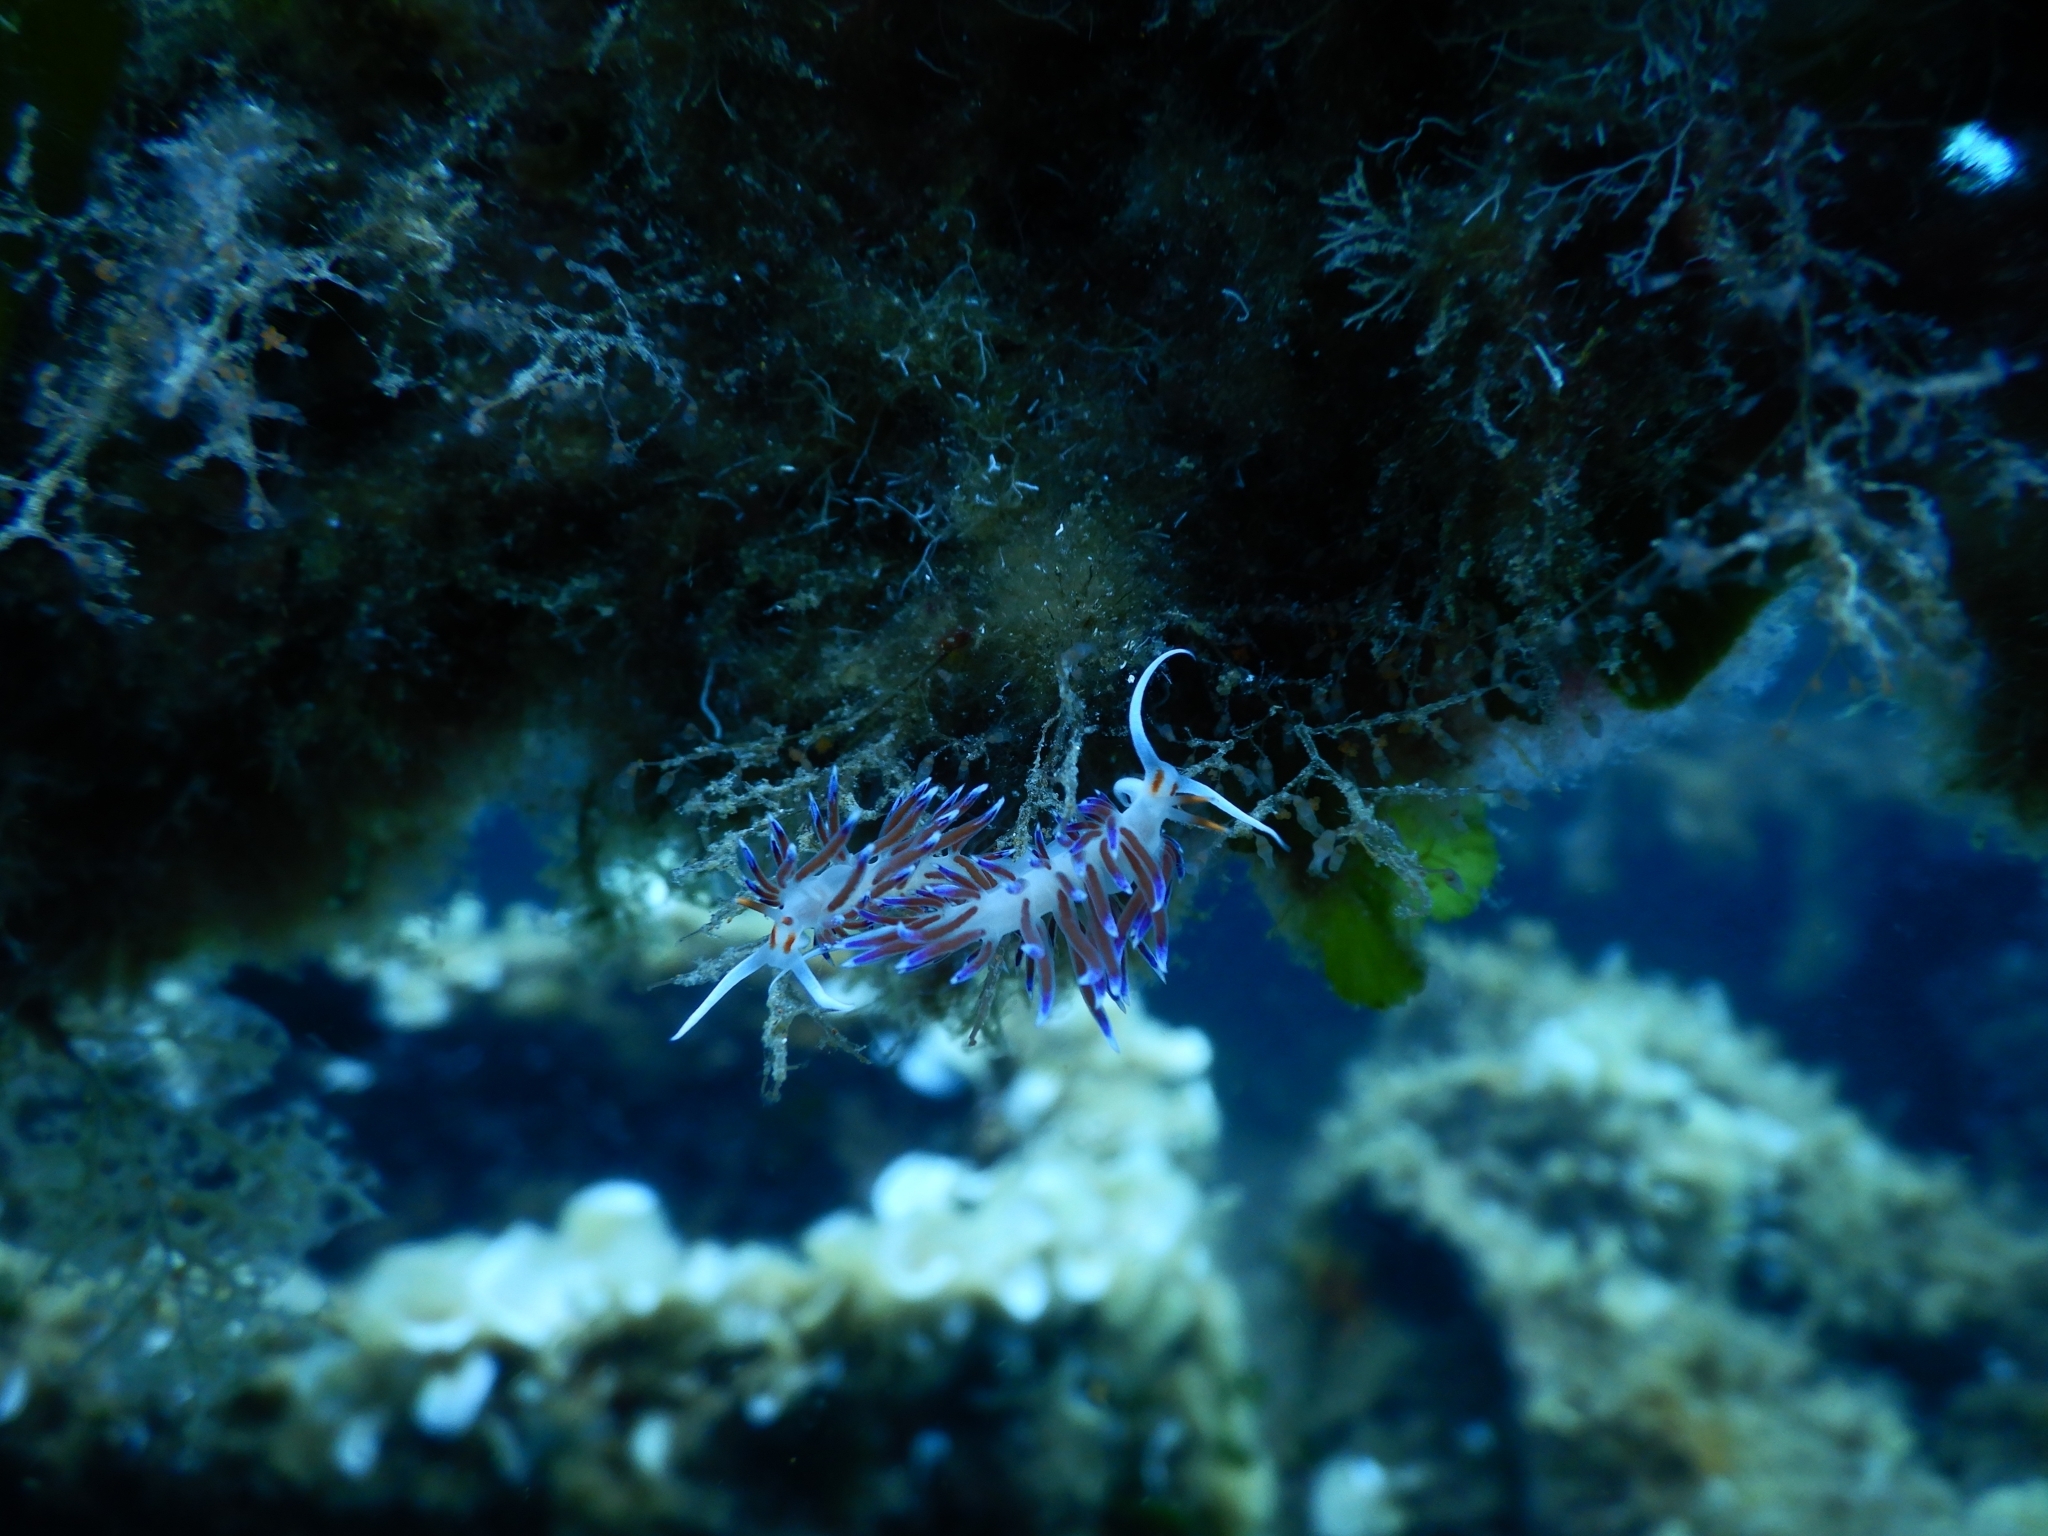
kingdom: Animalia
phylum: Mollusca
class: Gastropoda
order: Nudibranchia
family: Facelinidae
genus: Cratena
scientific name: Cratena peregrina
